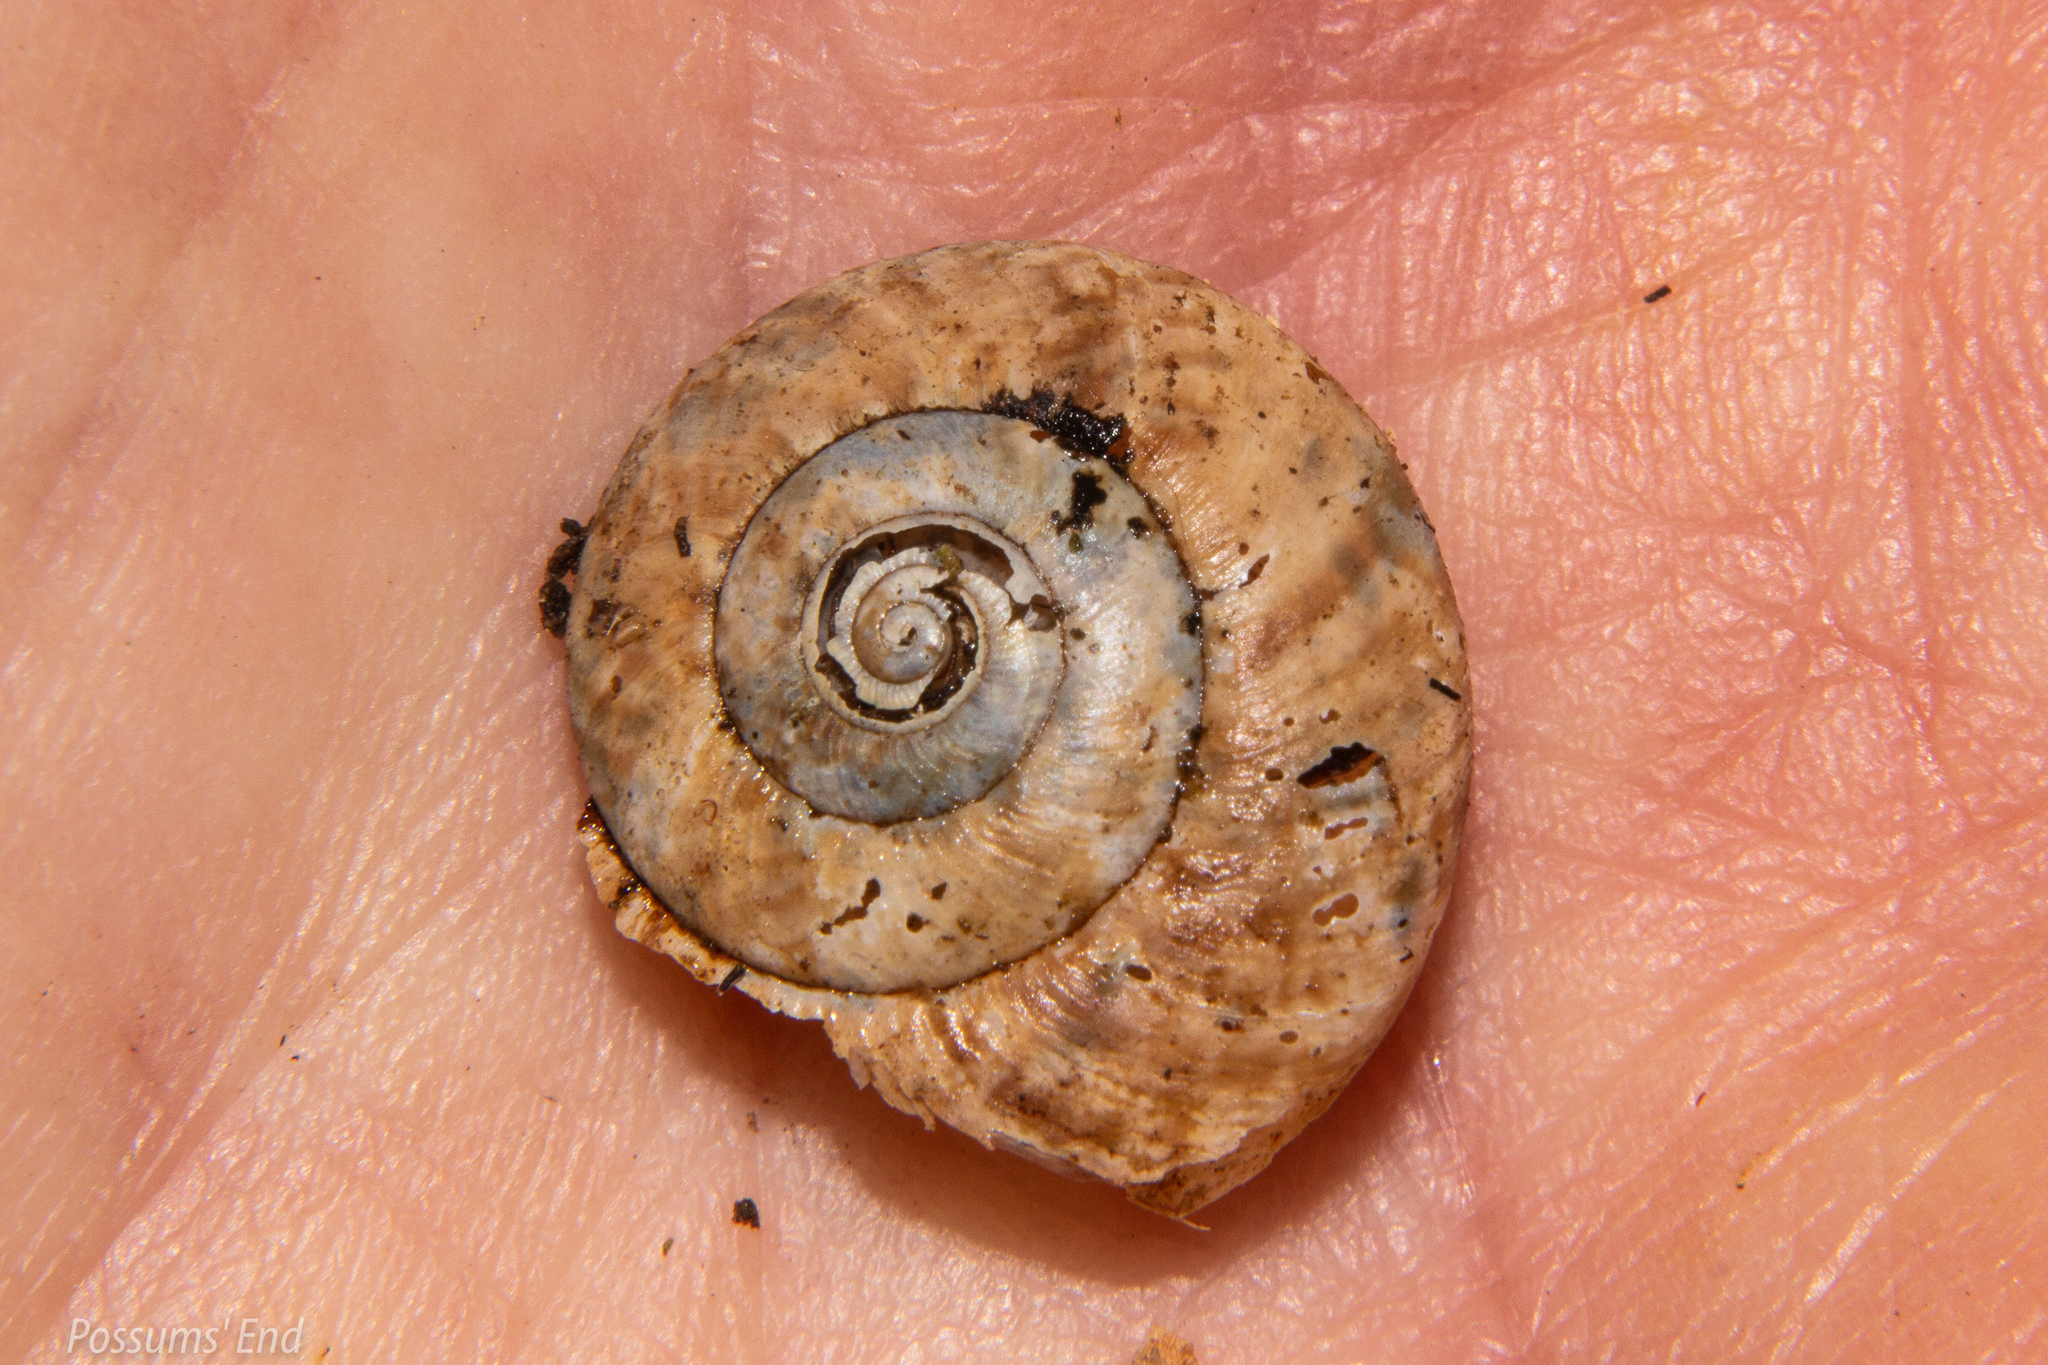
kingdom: Animalia
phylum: Mollusca
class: Gastropoda
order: Stylommatophora
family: Charopidae
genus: Thalassohelix
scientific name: Thalassohelix igniflua
